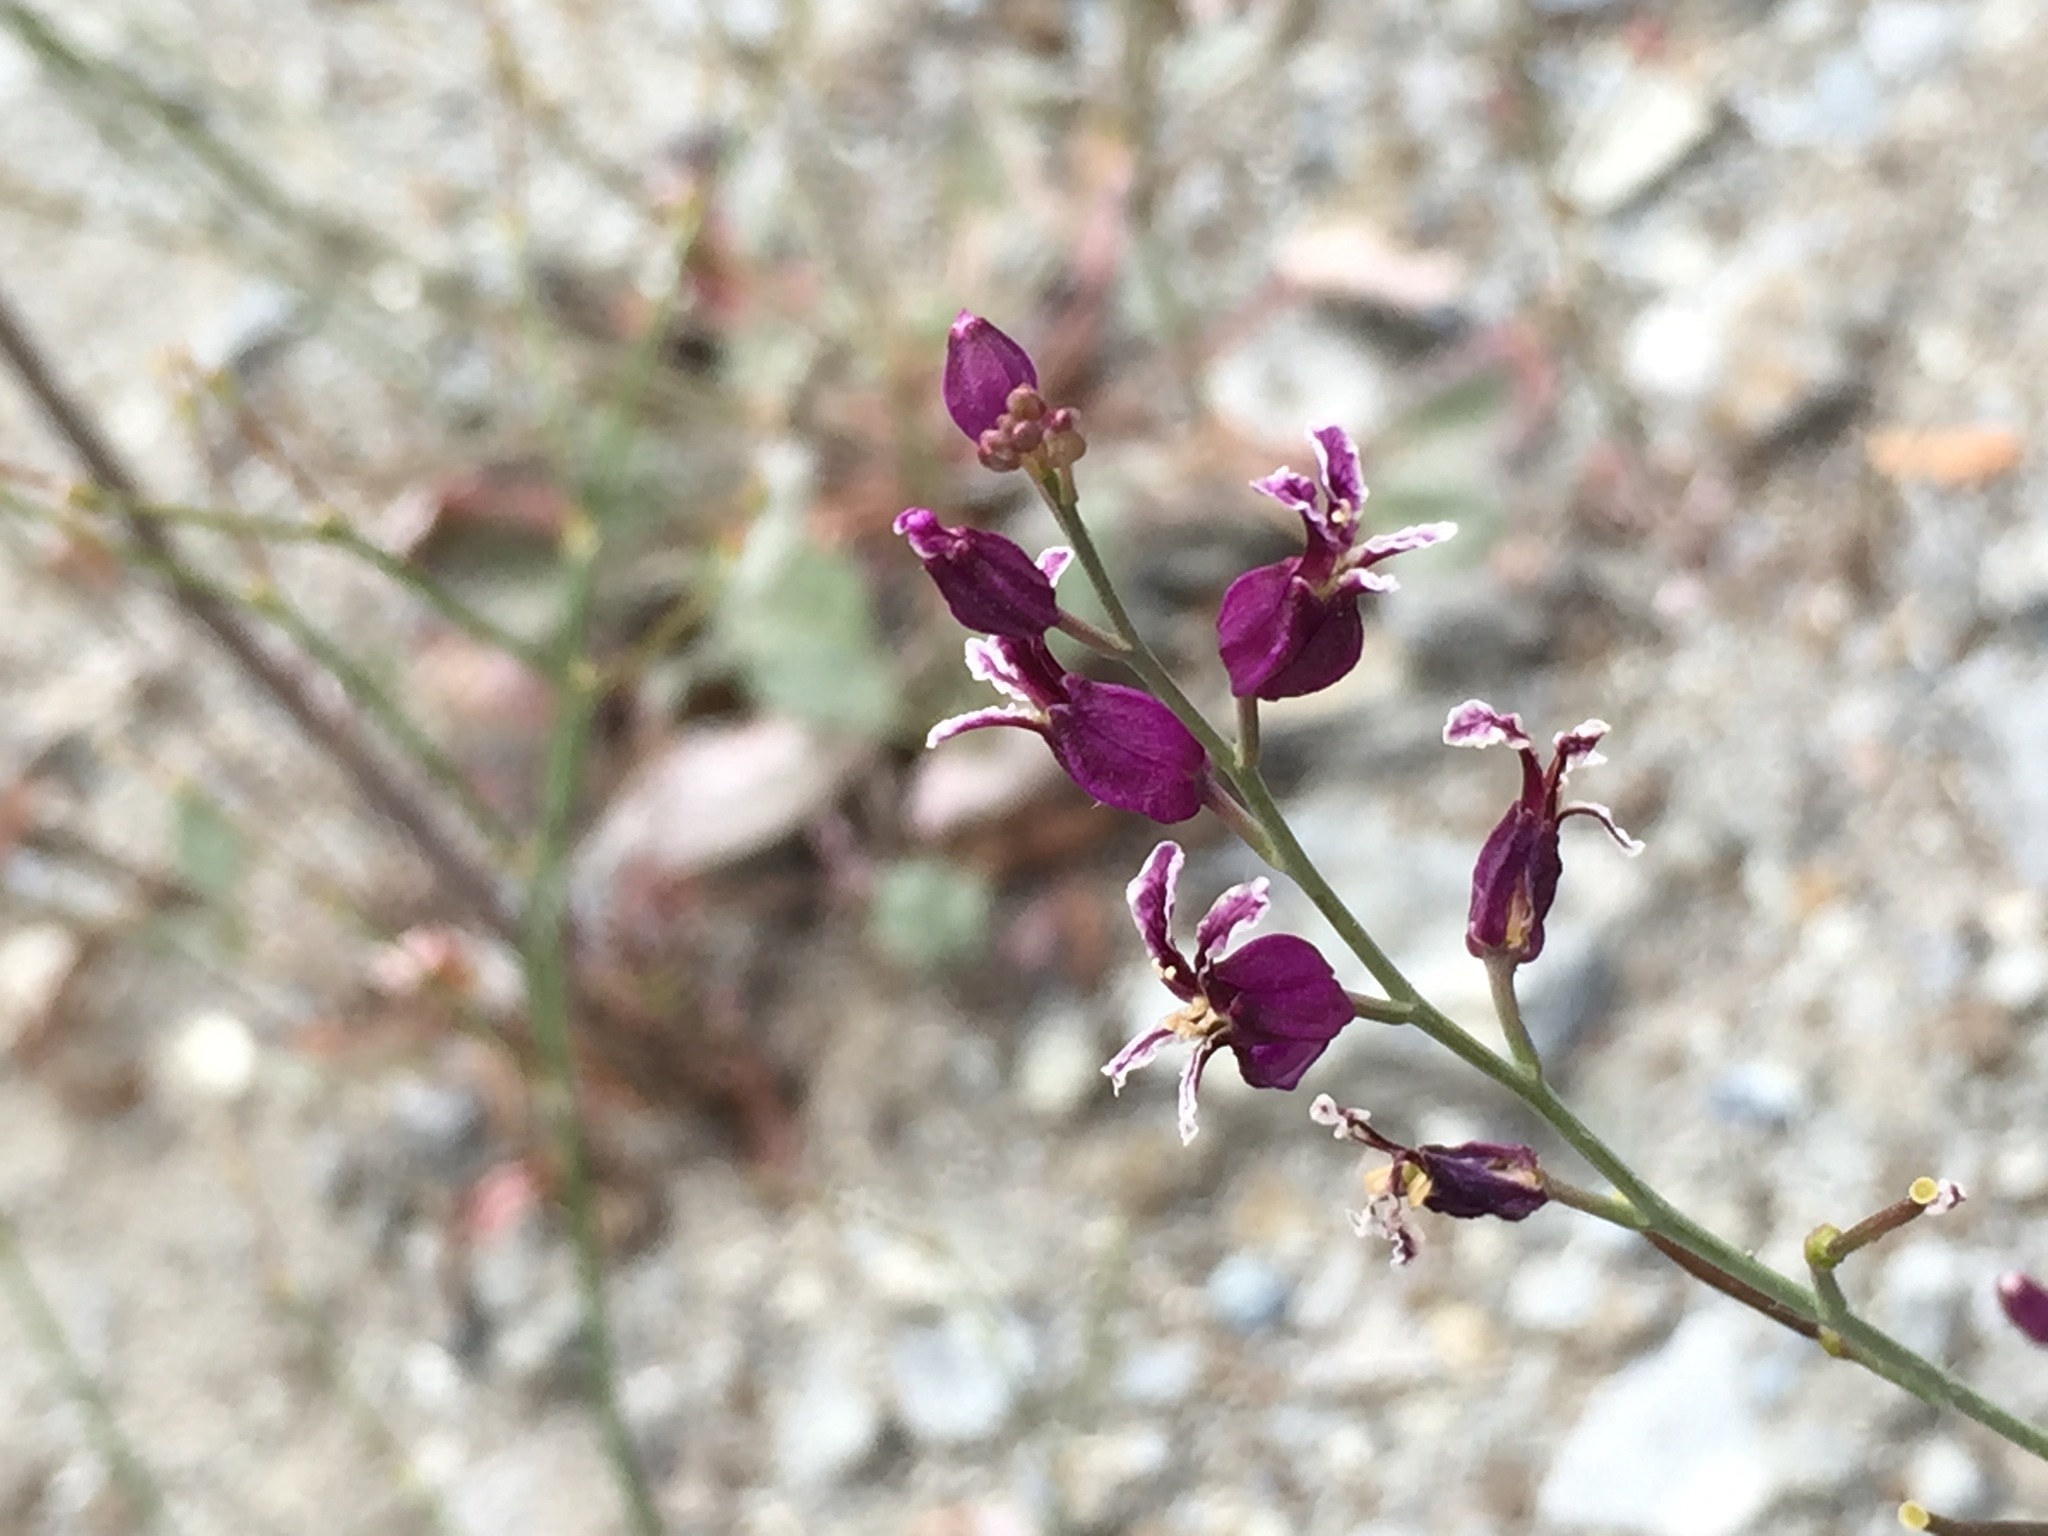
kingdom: Plantae
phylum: Tracheophyta
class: Magnoliopsida
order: Brassicales
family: Brassicaceae
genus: Streptanthus
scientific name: Streptanthus glandulosus
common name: Jewel-flower
